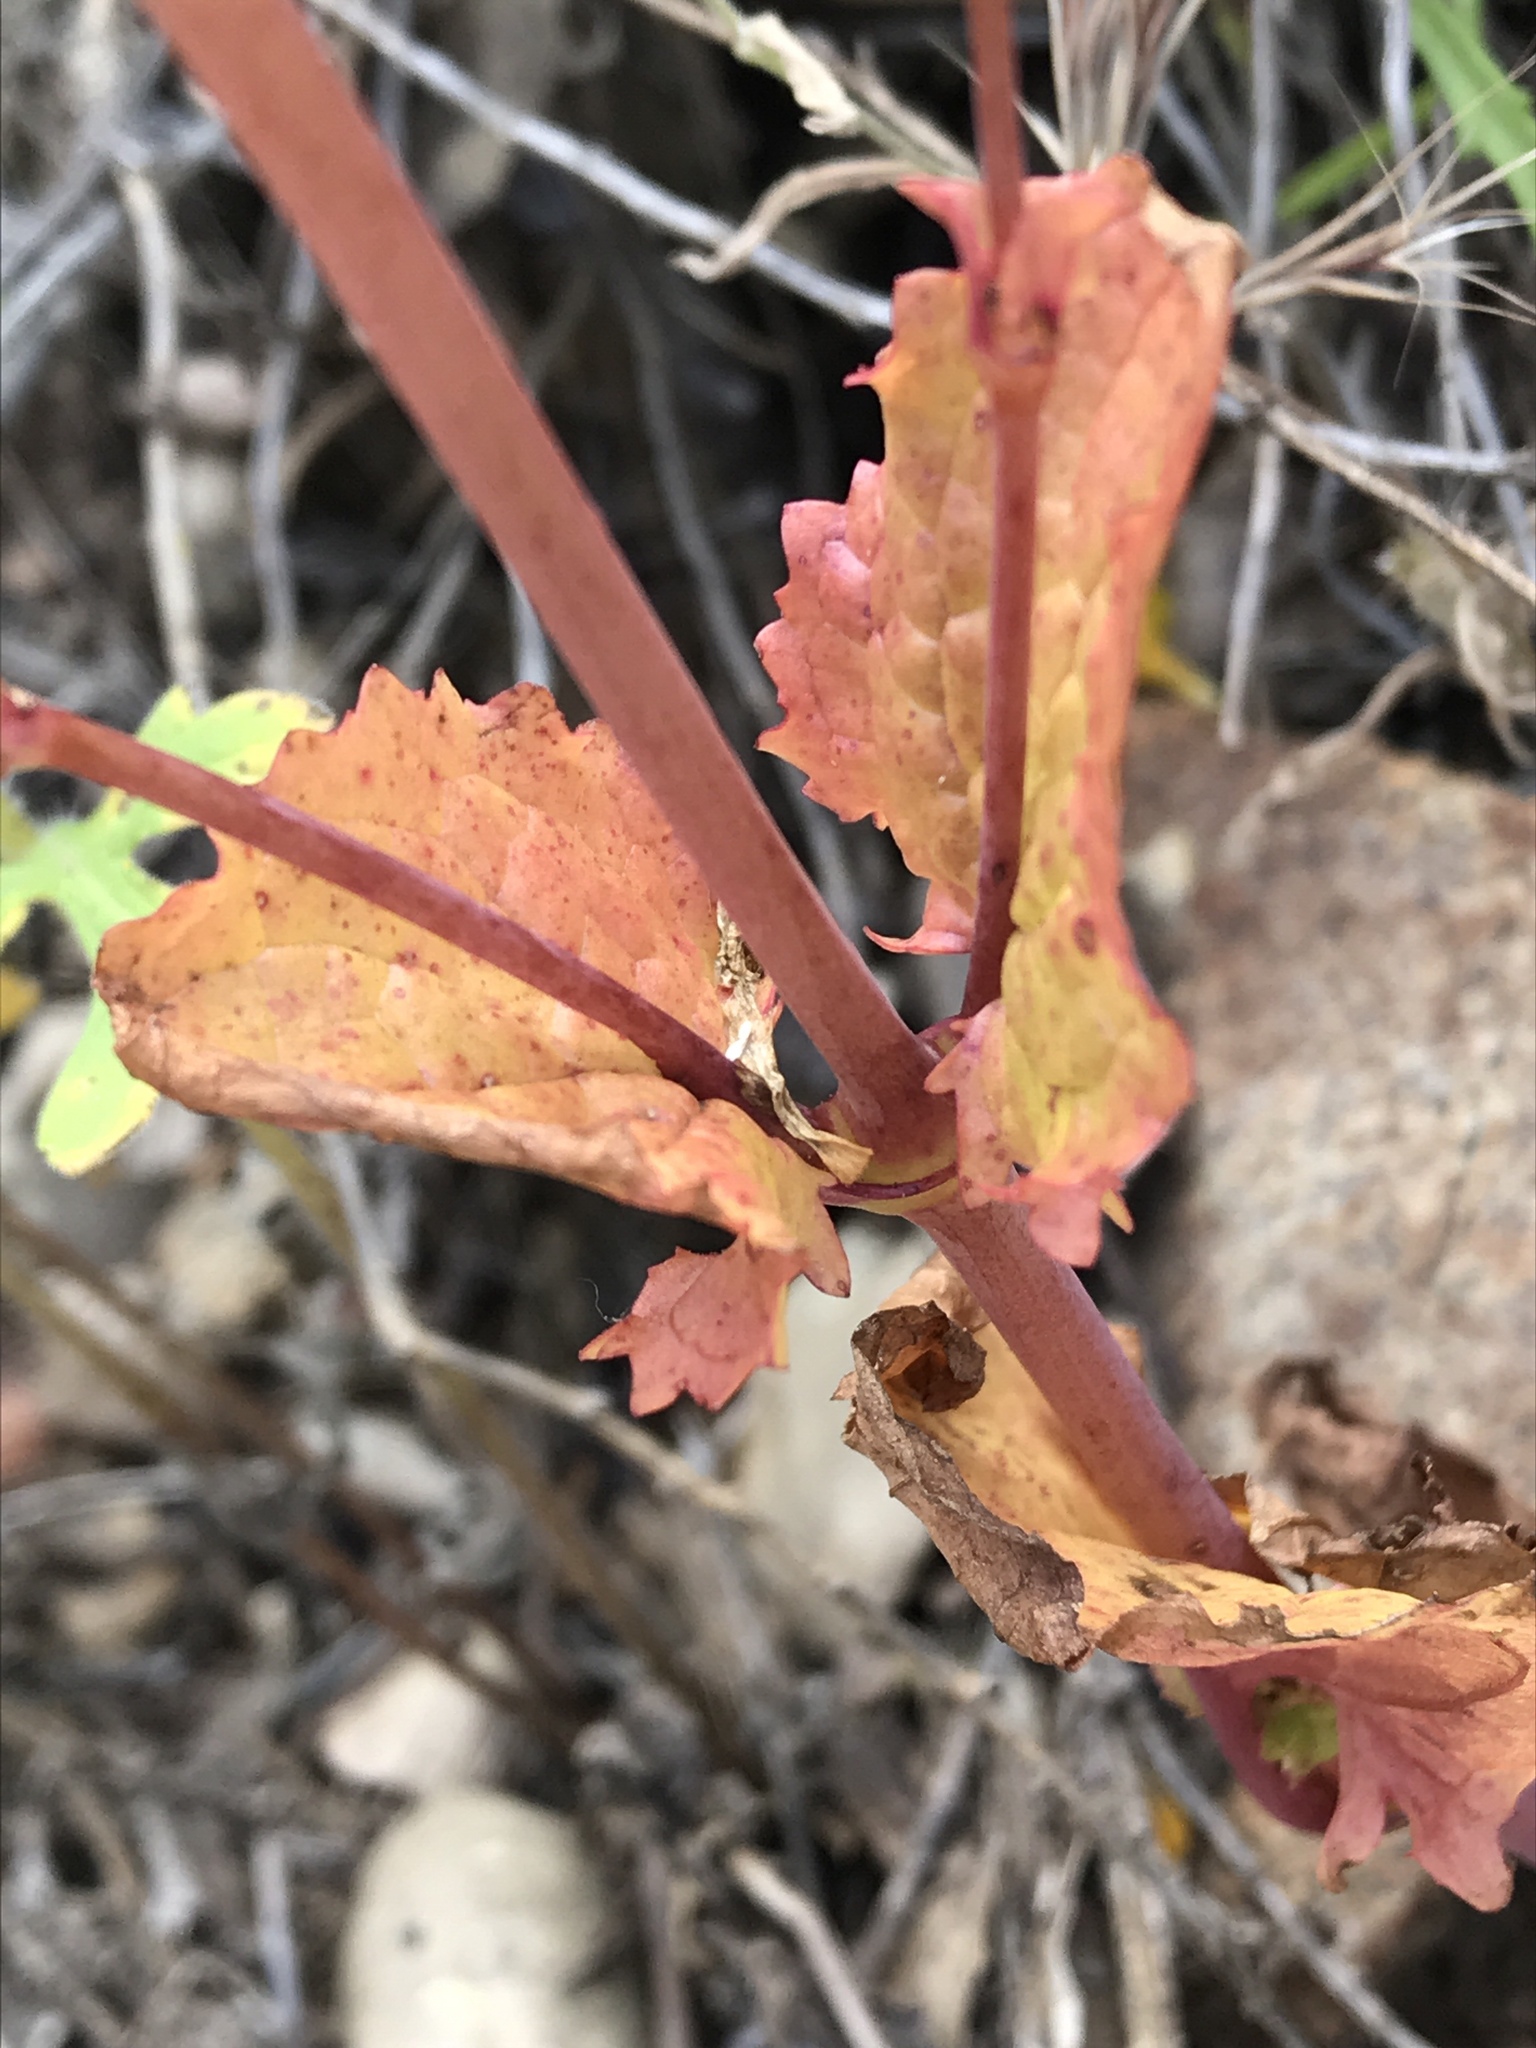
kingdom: Plantae
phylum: Tracheophyta
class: Magnoliopsida
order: Lamiales
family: Phrymaceae
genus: Erythranthe
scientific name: Erythranthe guttata
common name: Monkeyflower
